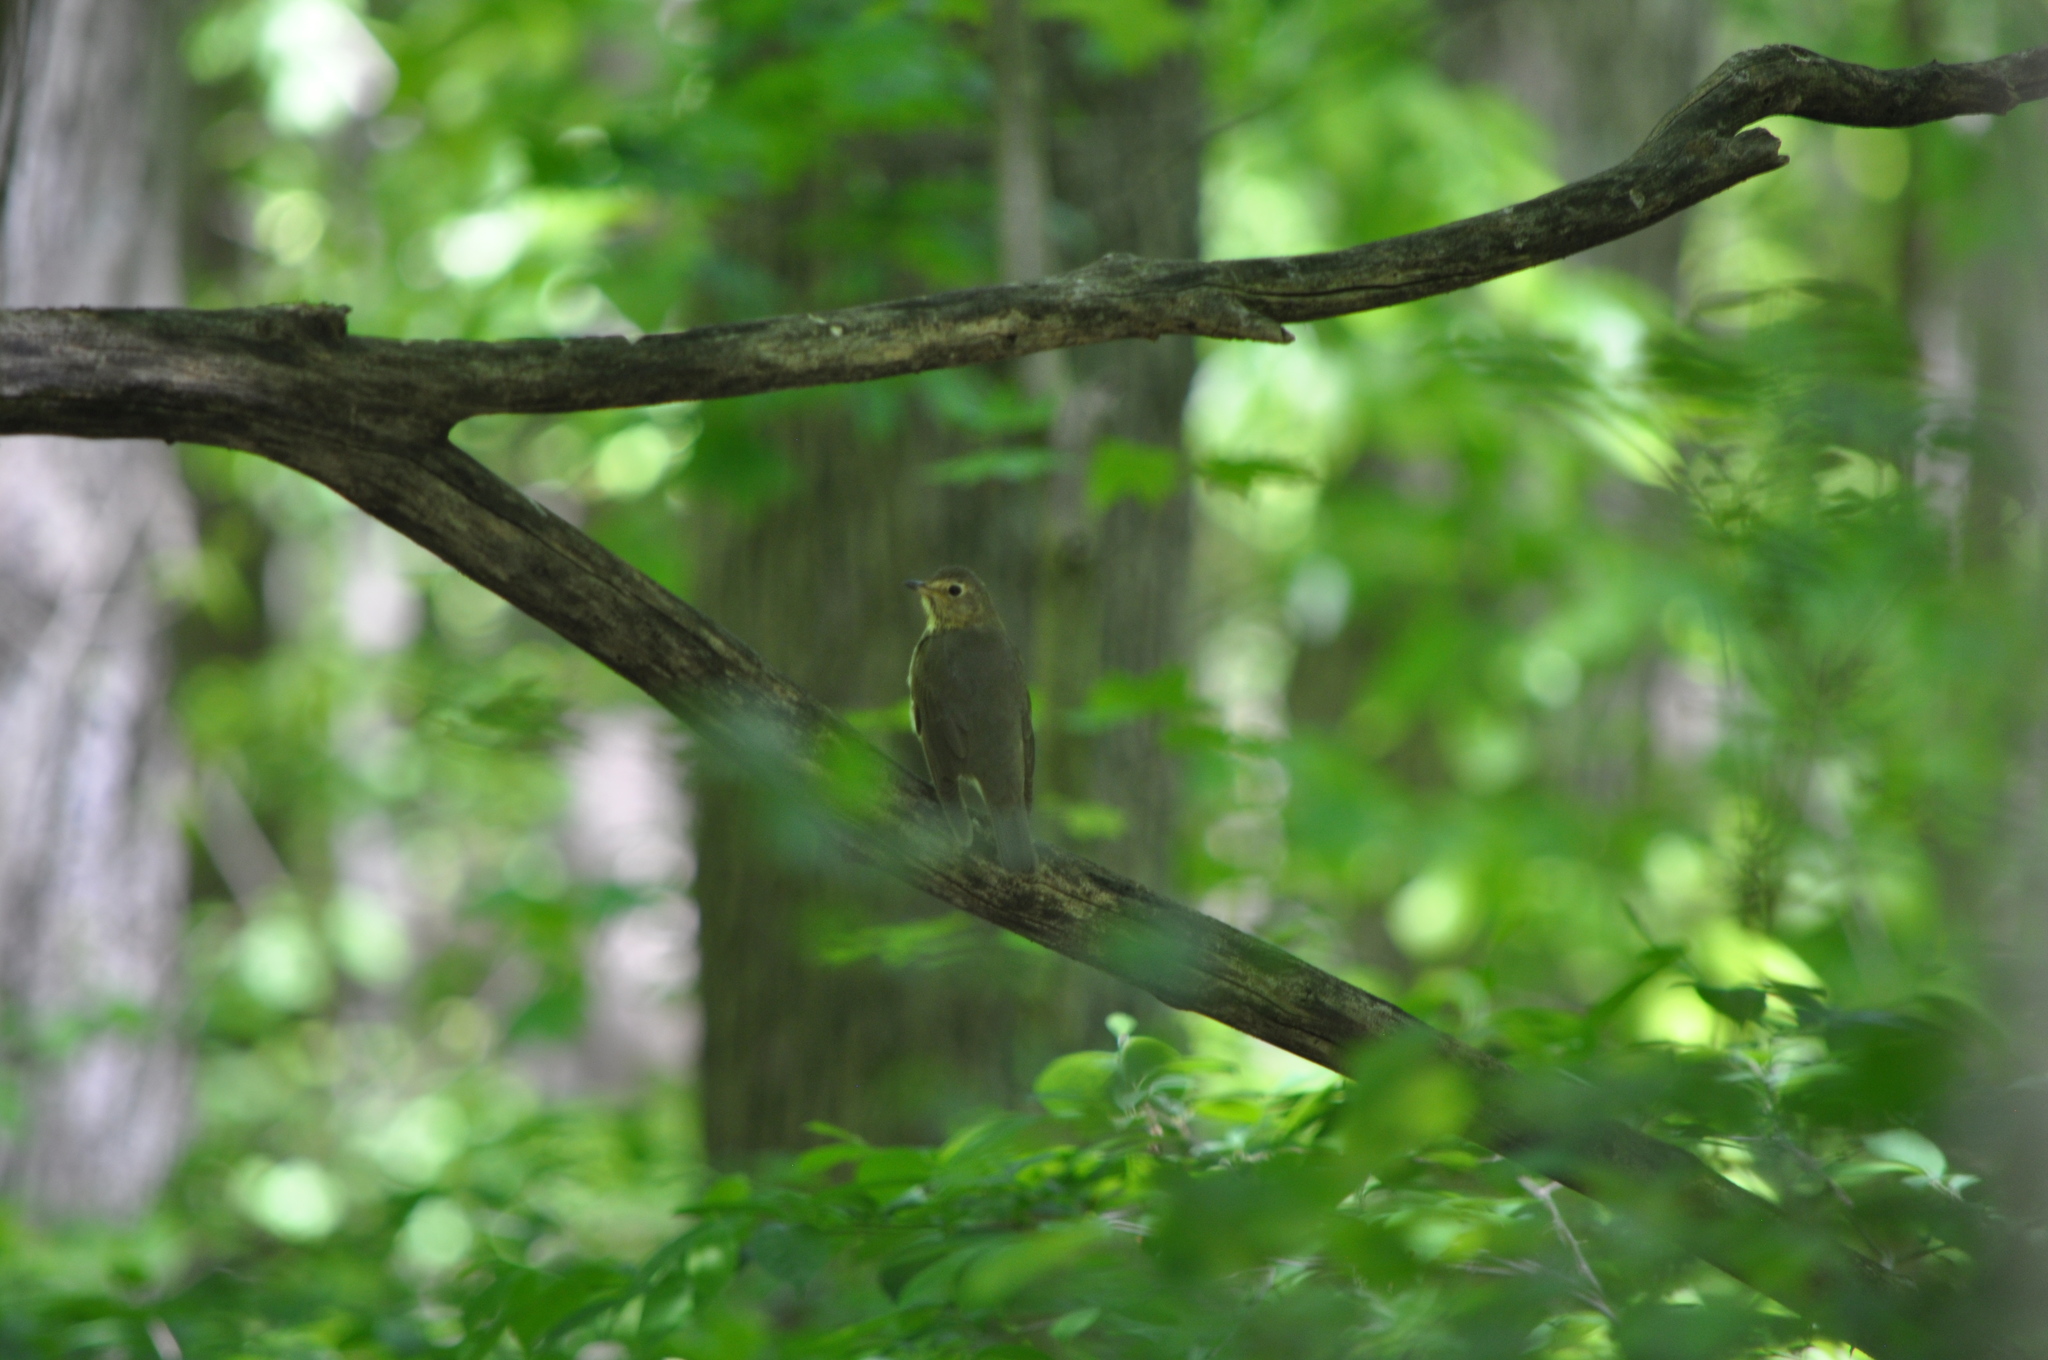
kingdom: Animalia
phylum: Chordata
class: Aves
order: Passeriformes
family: Turdidae
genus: Catharus
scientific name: Catharus ustulatus
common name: Swainson's thrush
